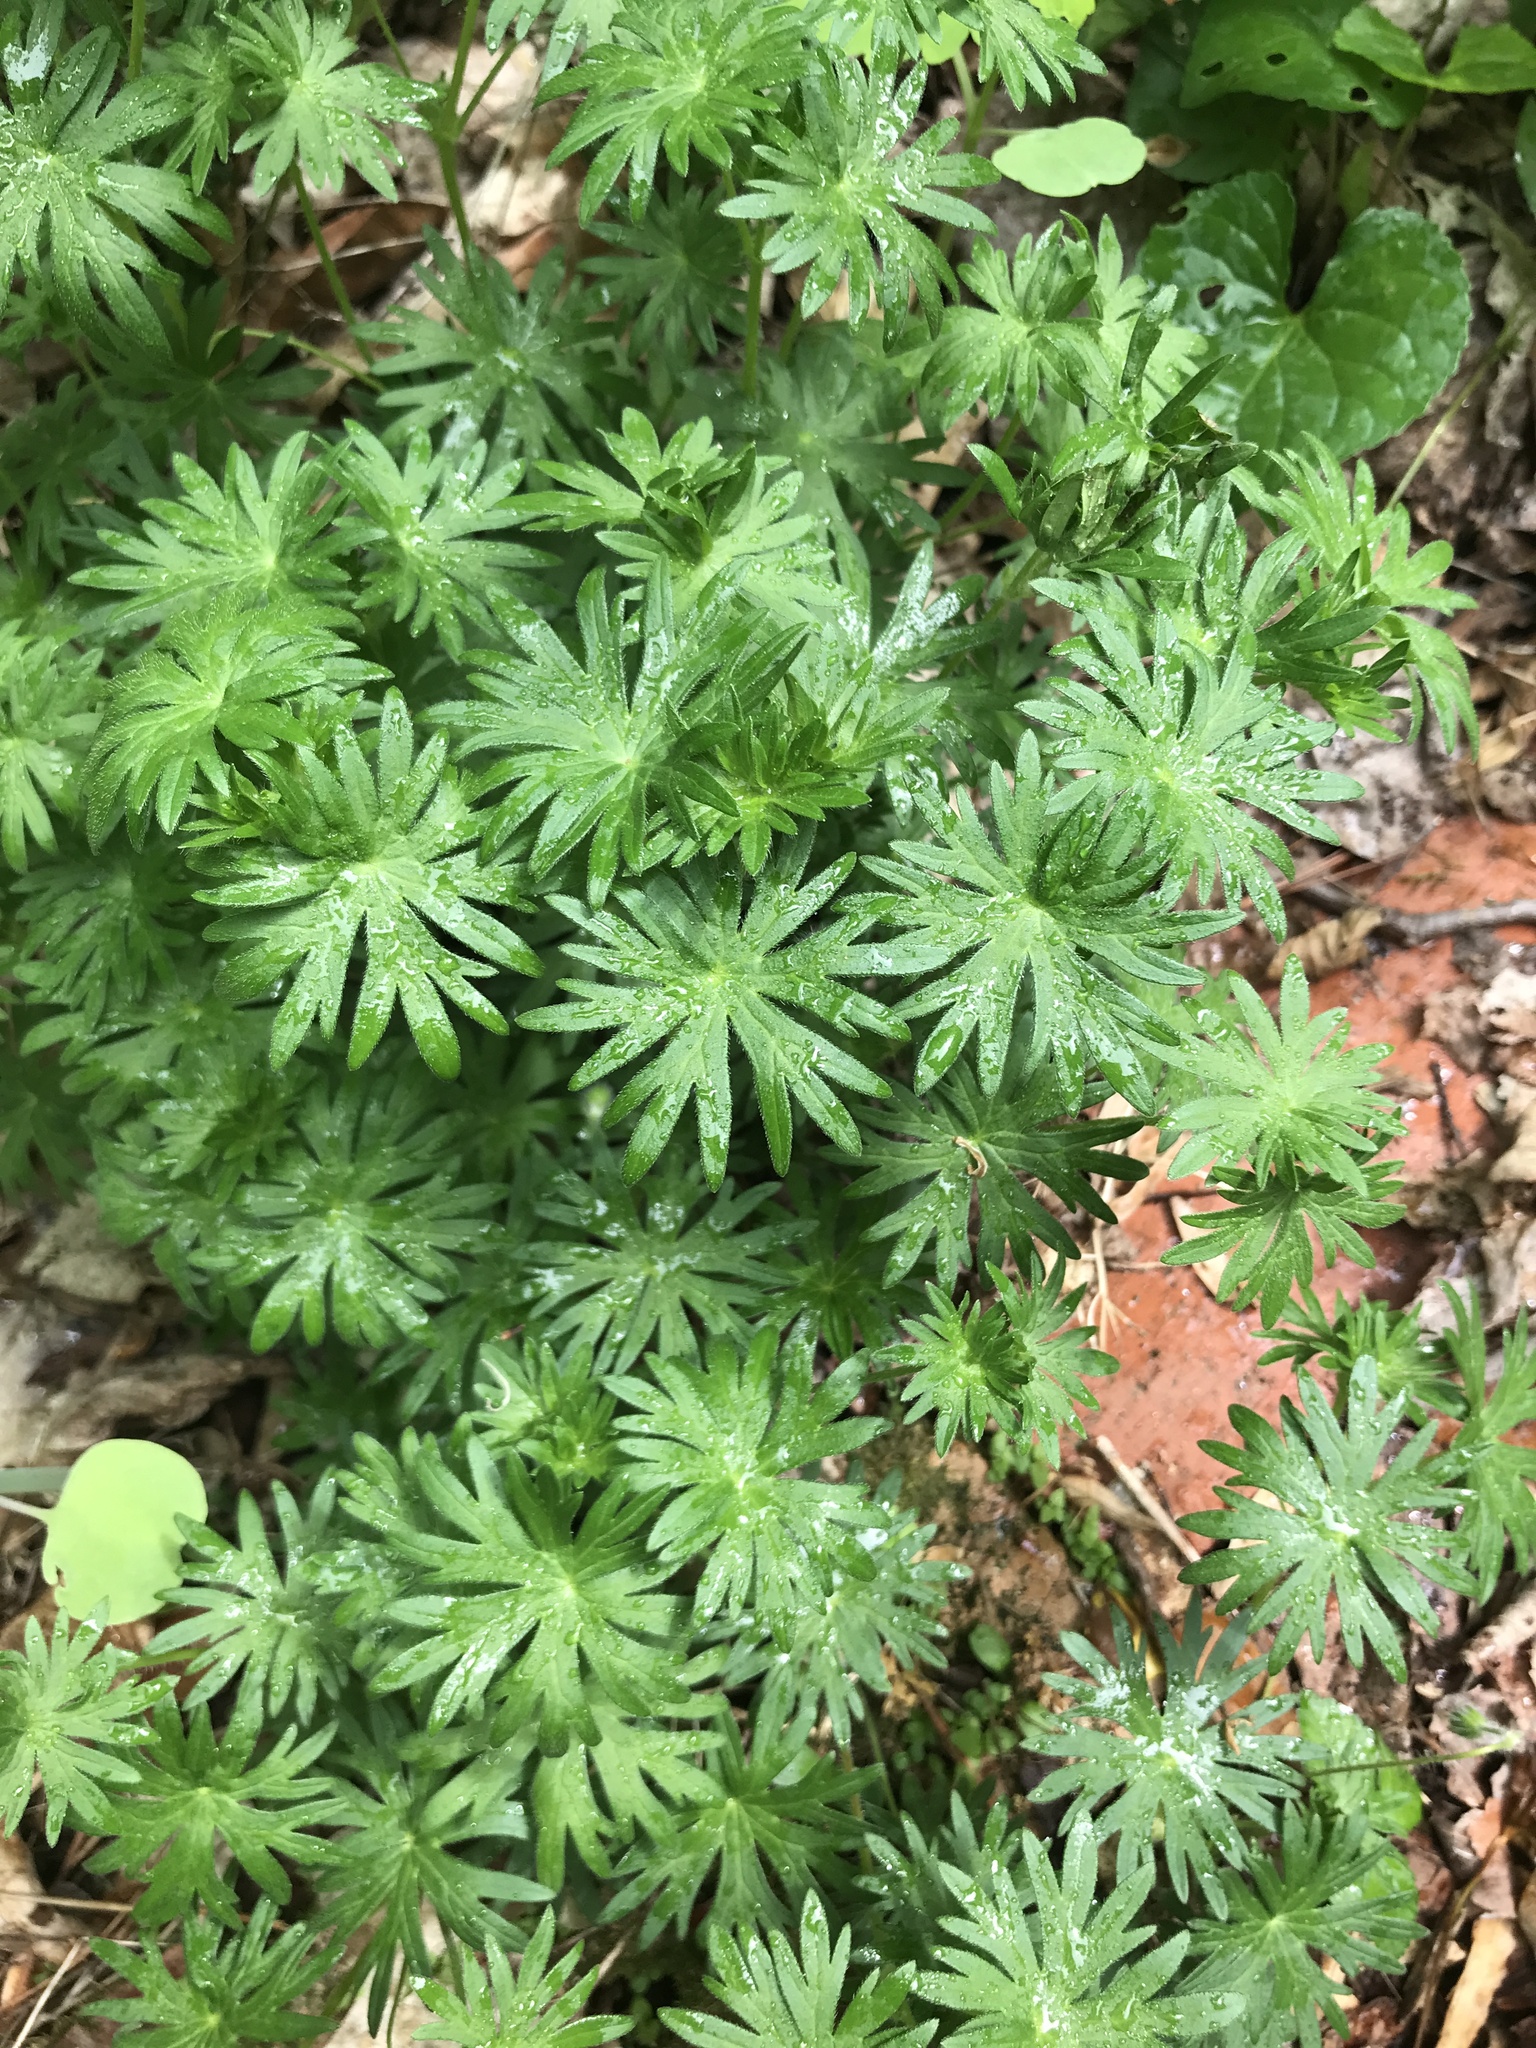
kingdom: Plantae
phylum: Tracheophyta
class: Magnoliopsida
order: Geraniales
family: Geraniaceae
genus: Geranium
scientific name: Geranium sanguineum
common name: Bloody crane's-bill
